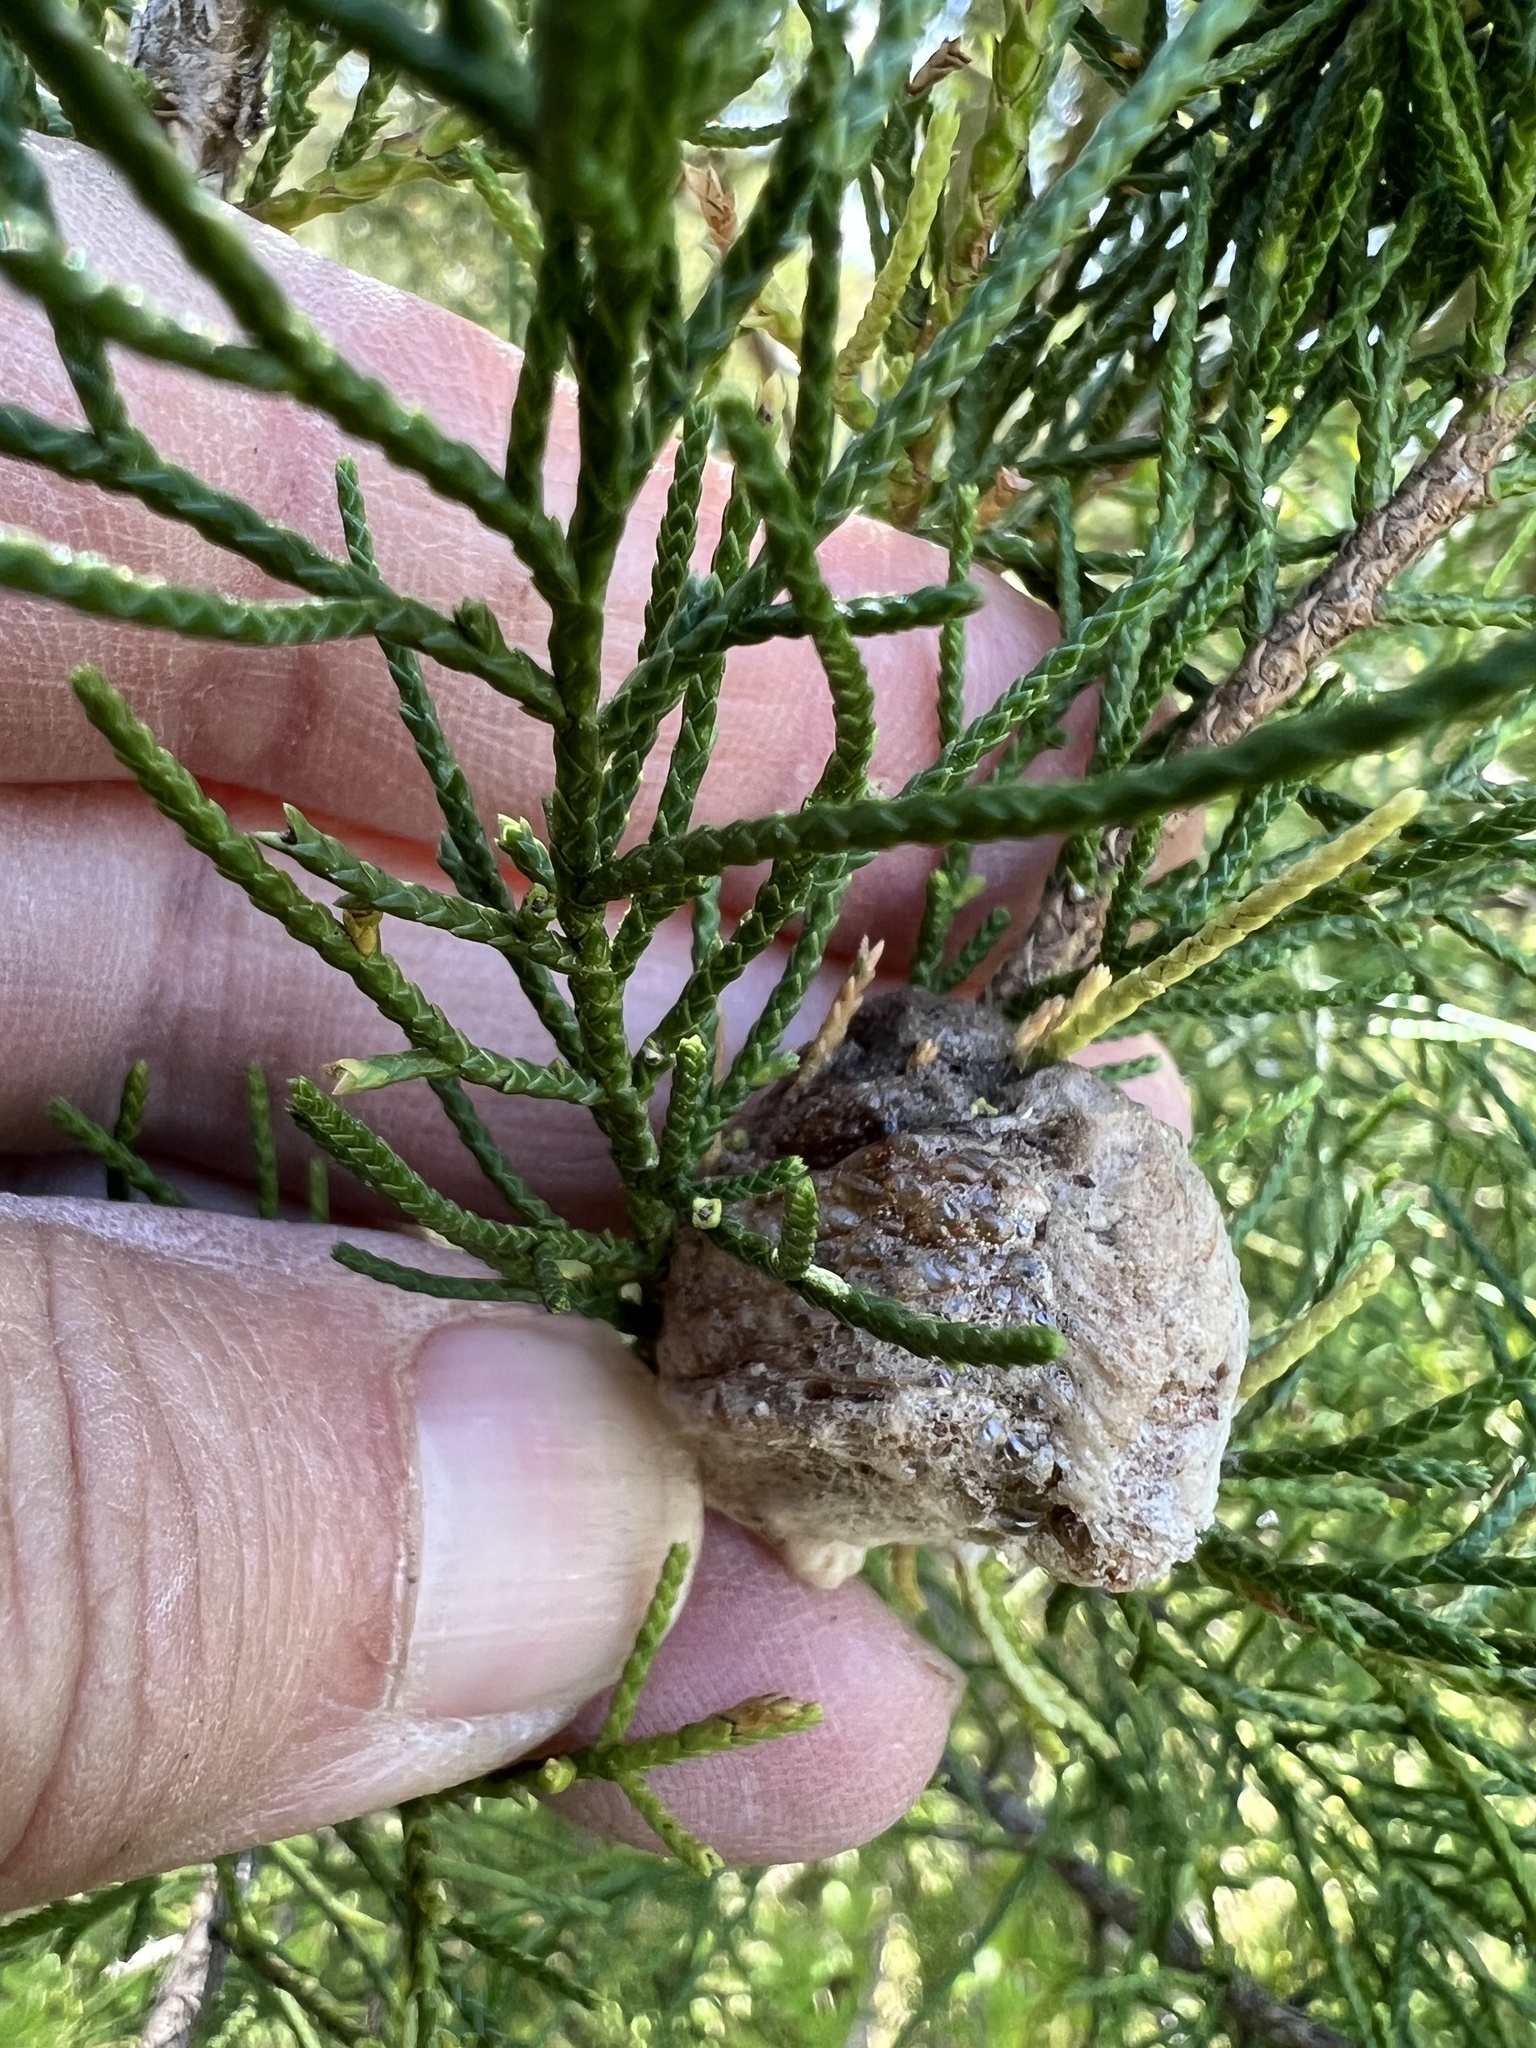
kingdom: Animalia
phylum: Arthropoda
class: Insecta
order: Mantodea
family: Mantidae
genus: Tenodera
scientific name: Tenodera sinensis
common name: Chinese mantis
